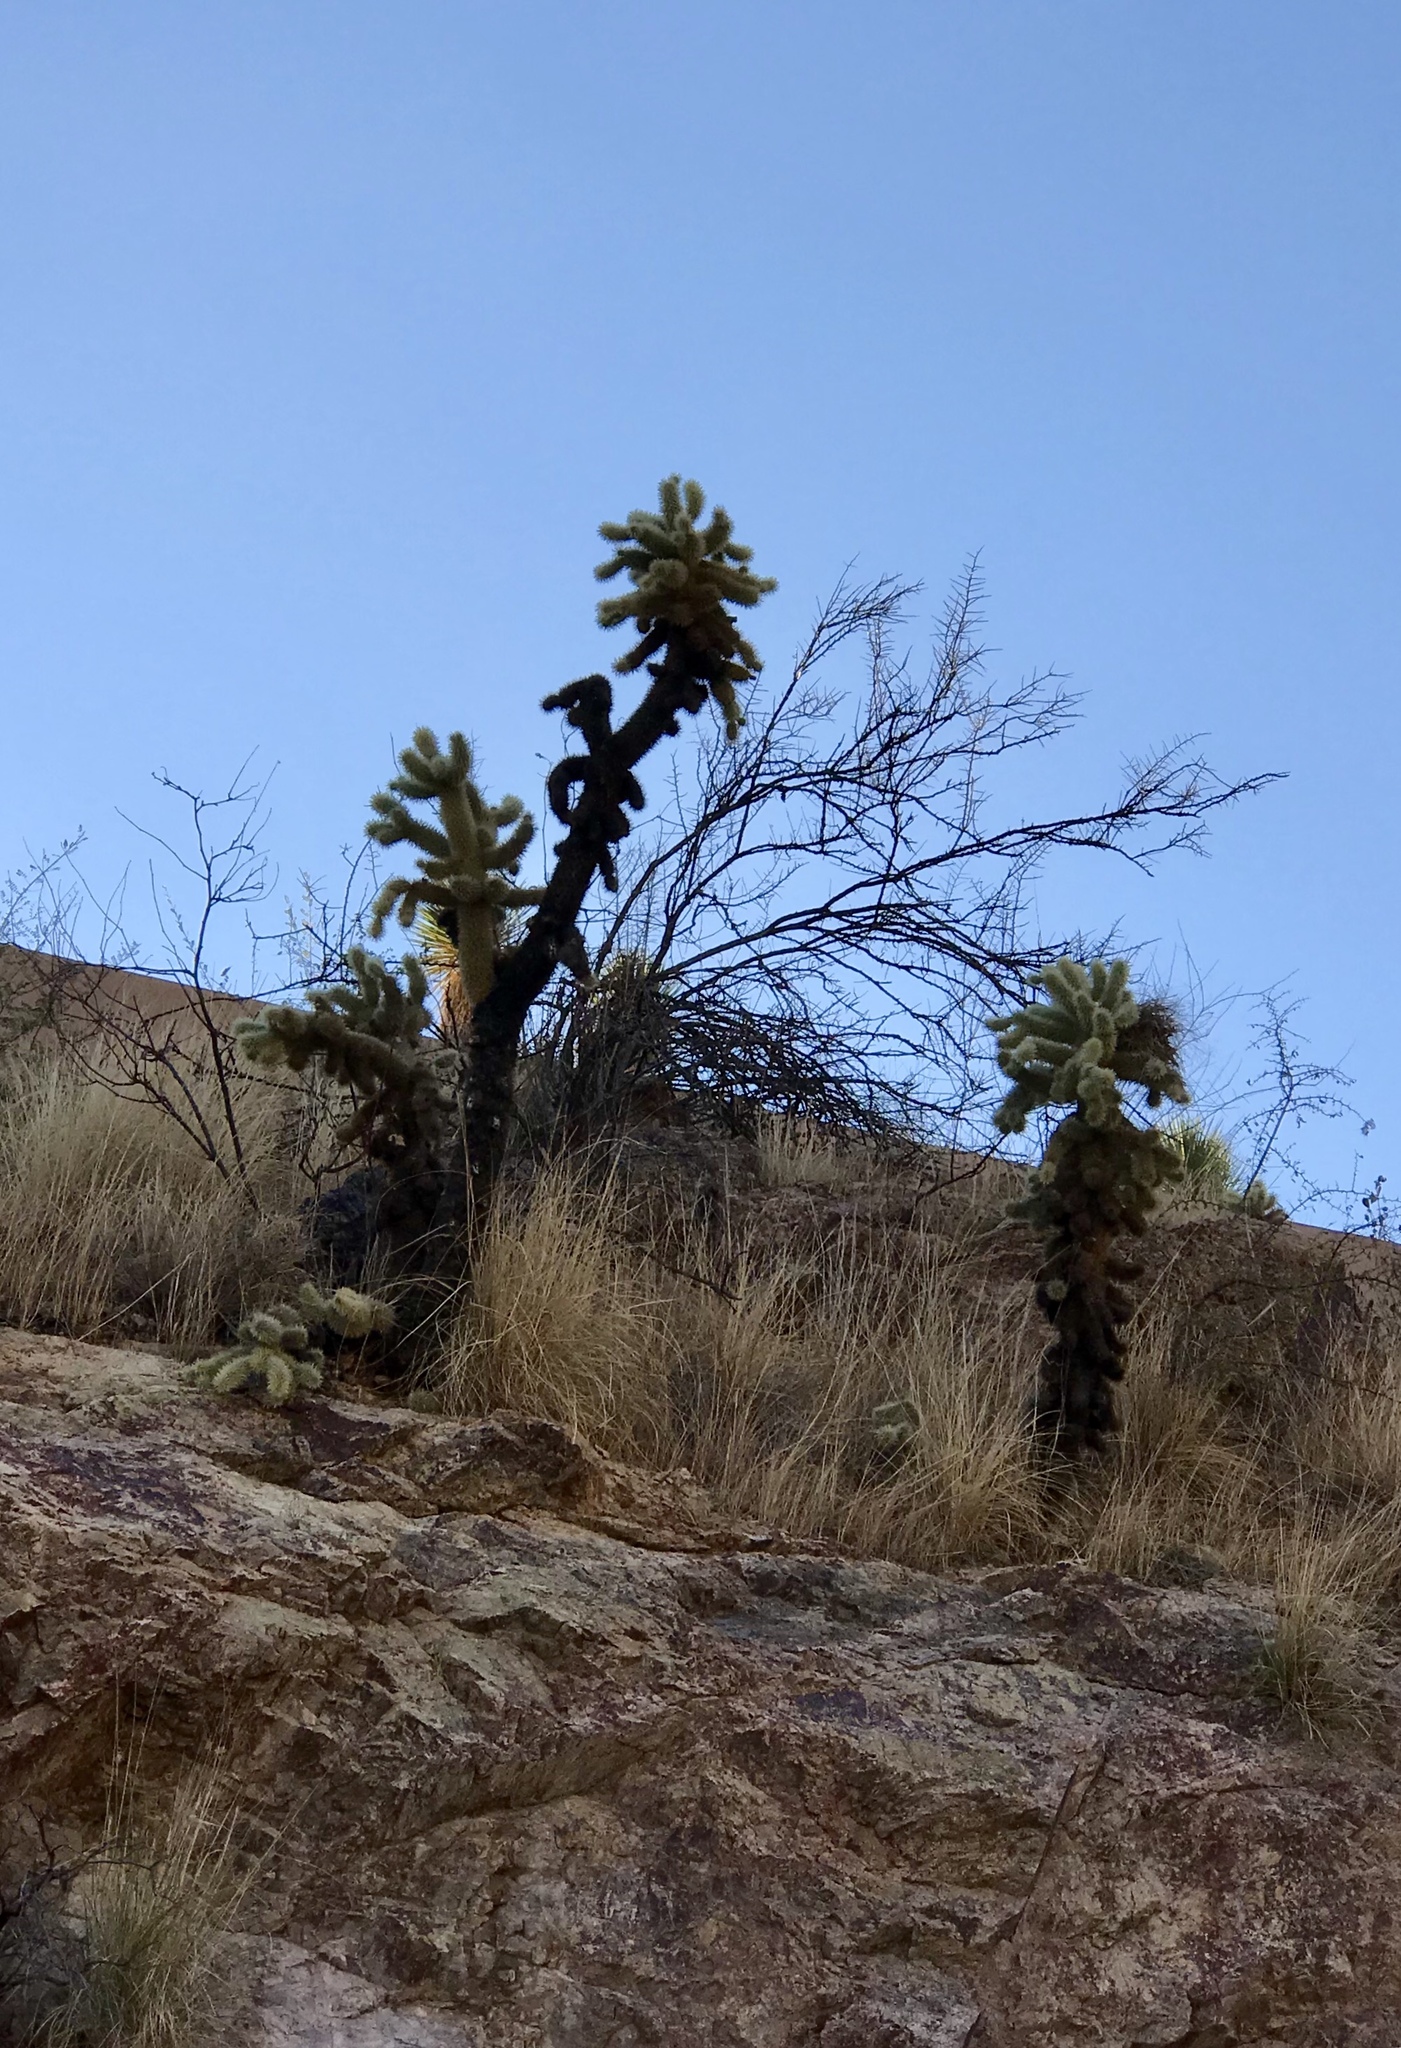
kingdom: Plantae
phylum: Tracheophyta
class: Magnoliopsida
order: Caryophyllales
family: Cactaceae
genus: Cylindropuntia
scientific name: Cylindropuntia fosbergii
